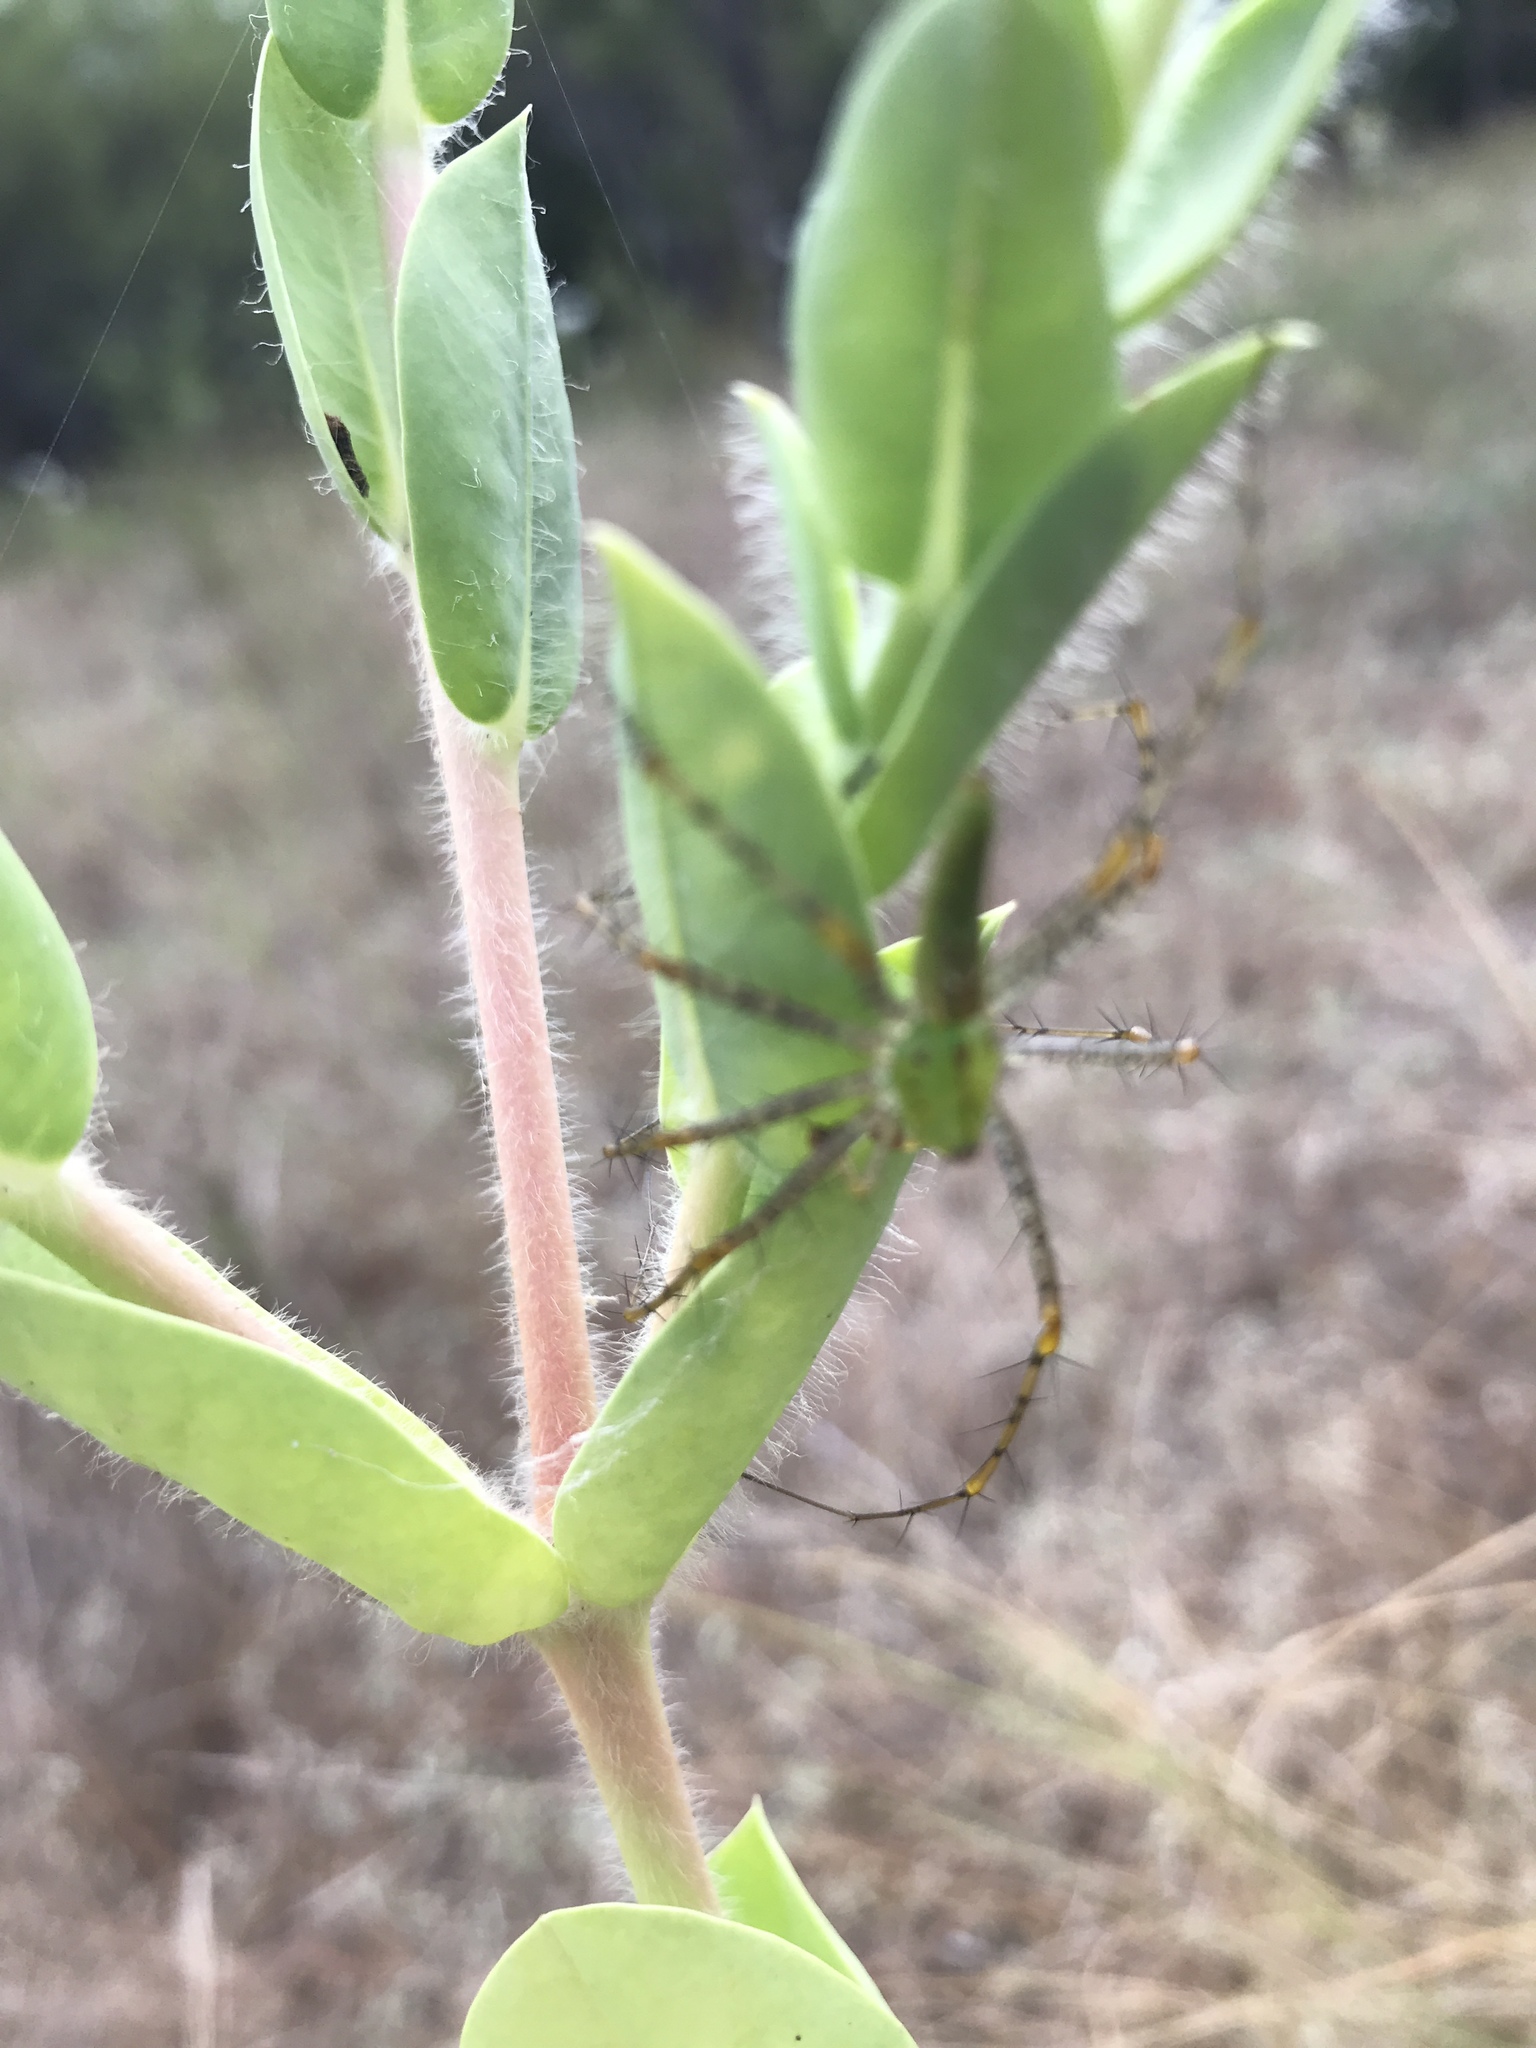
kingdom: Animalia
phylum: Arthropoda
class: Arachnida
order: Araneae
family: Oxyopidae
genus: Peucetia
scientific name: Peucetia viridans
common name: Lynx spiders
